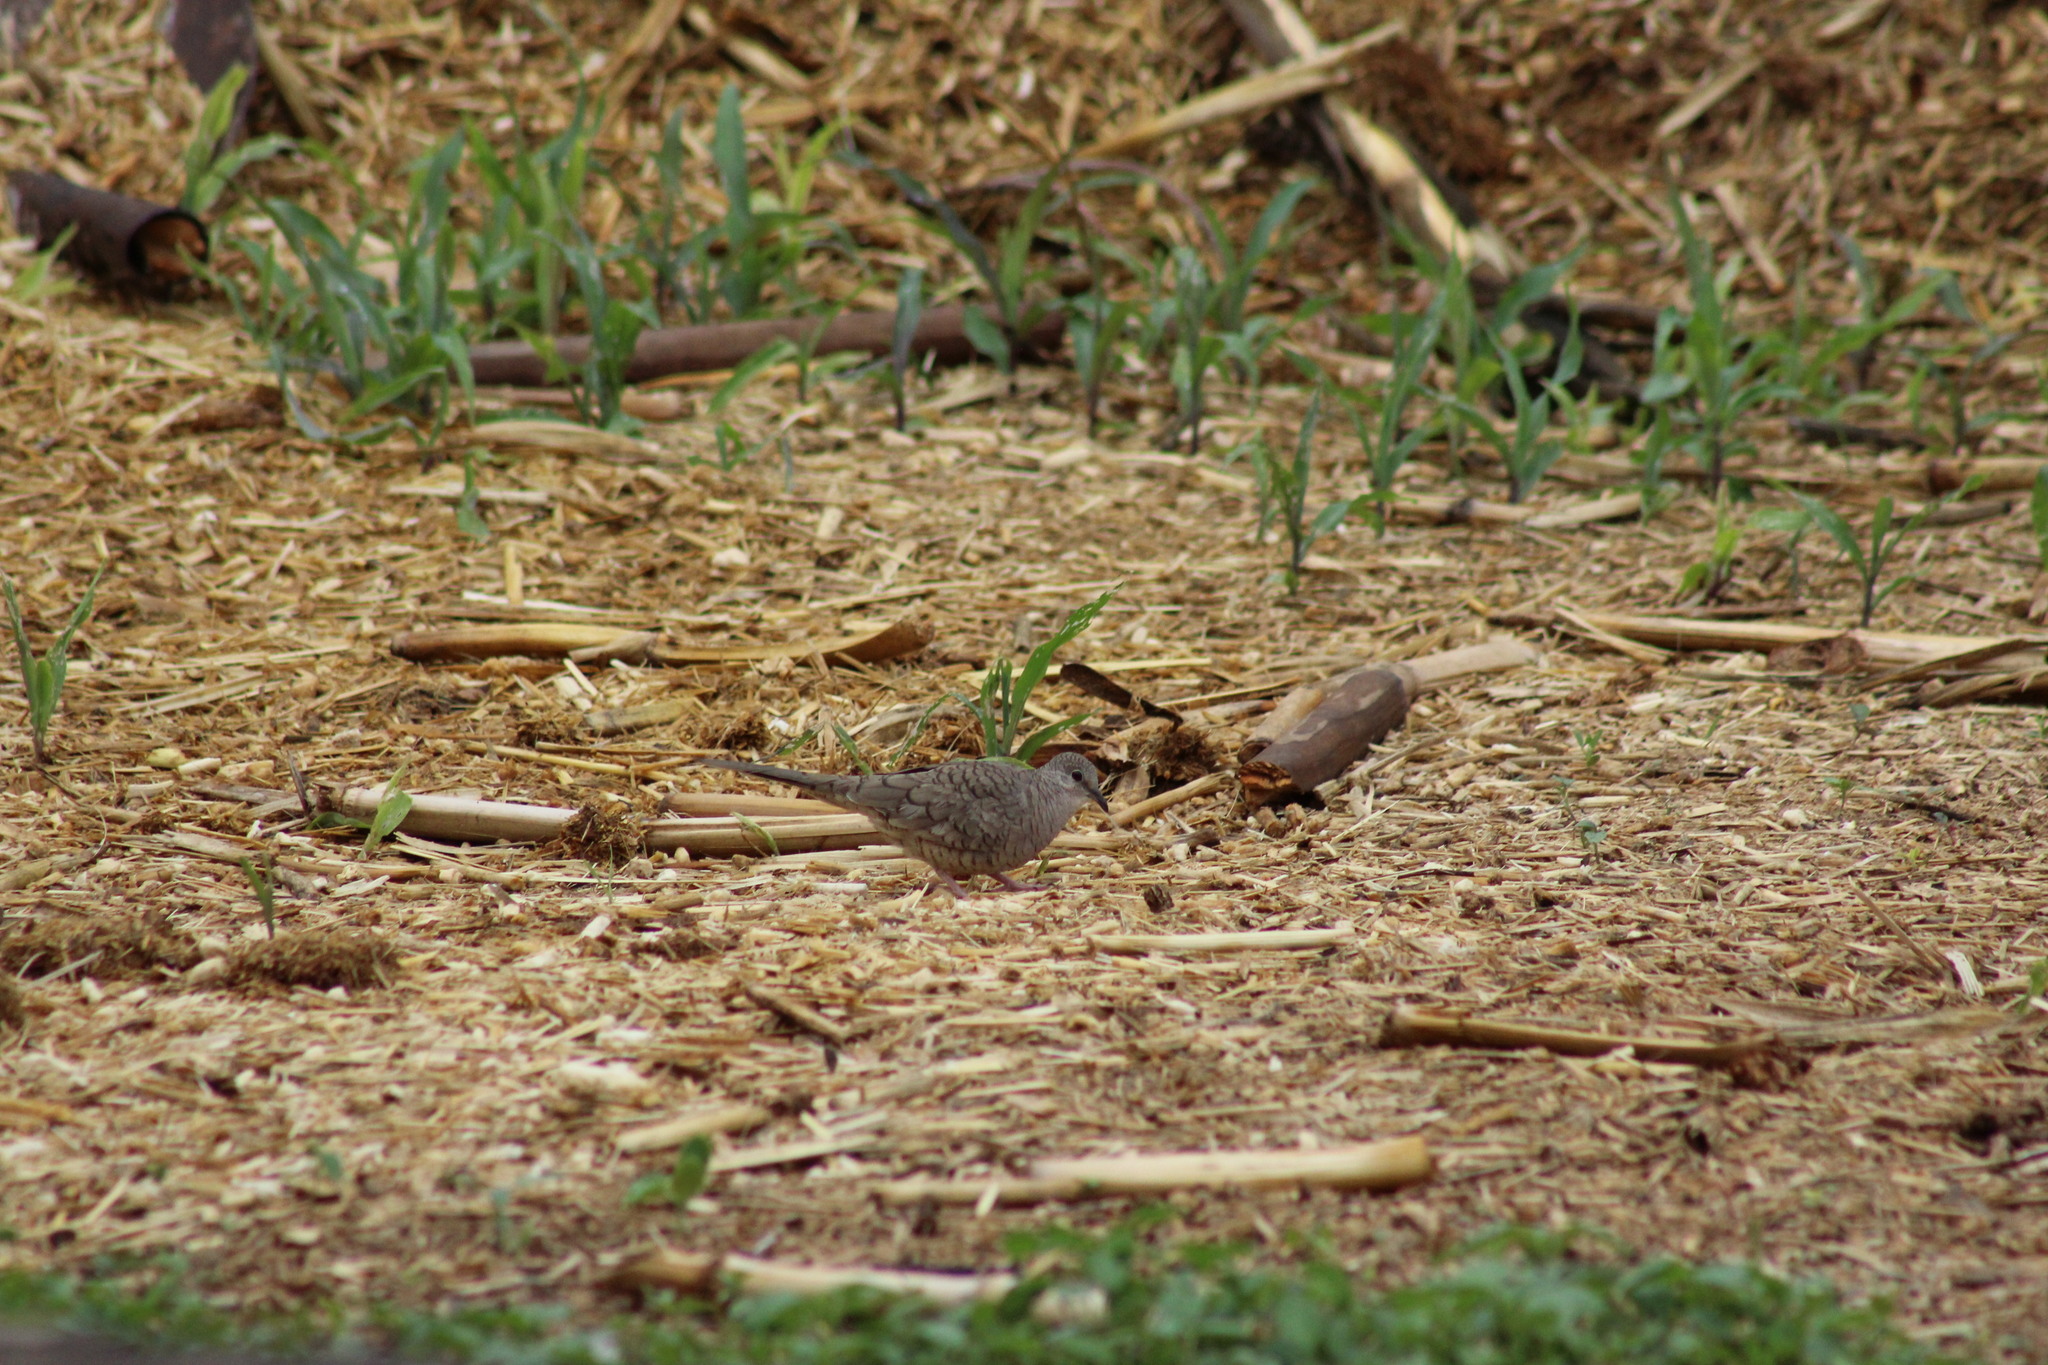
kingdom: Animalia
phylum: Chordata
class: Aves
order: Columbiformes
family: Columbidae
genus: Columbina
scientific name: Columbina inca
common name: Inca dove
